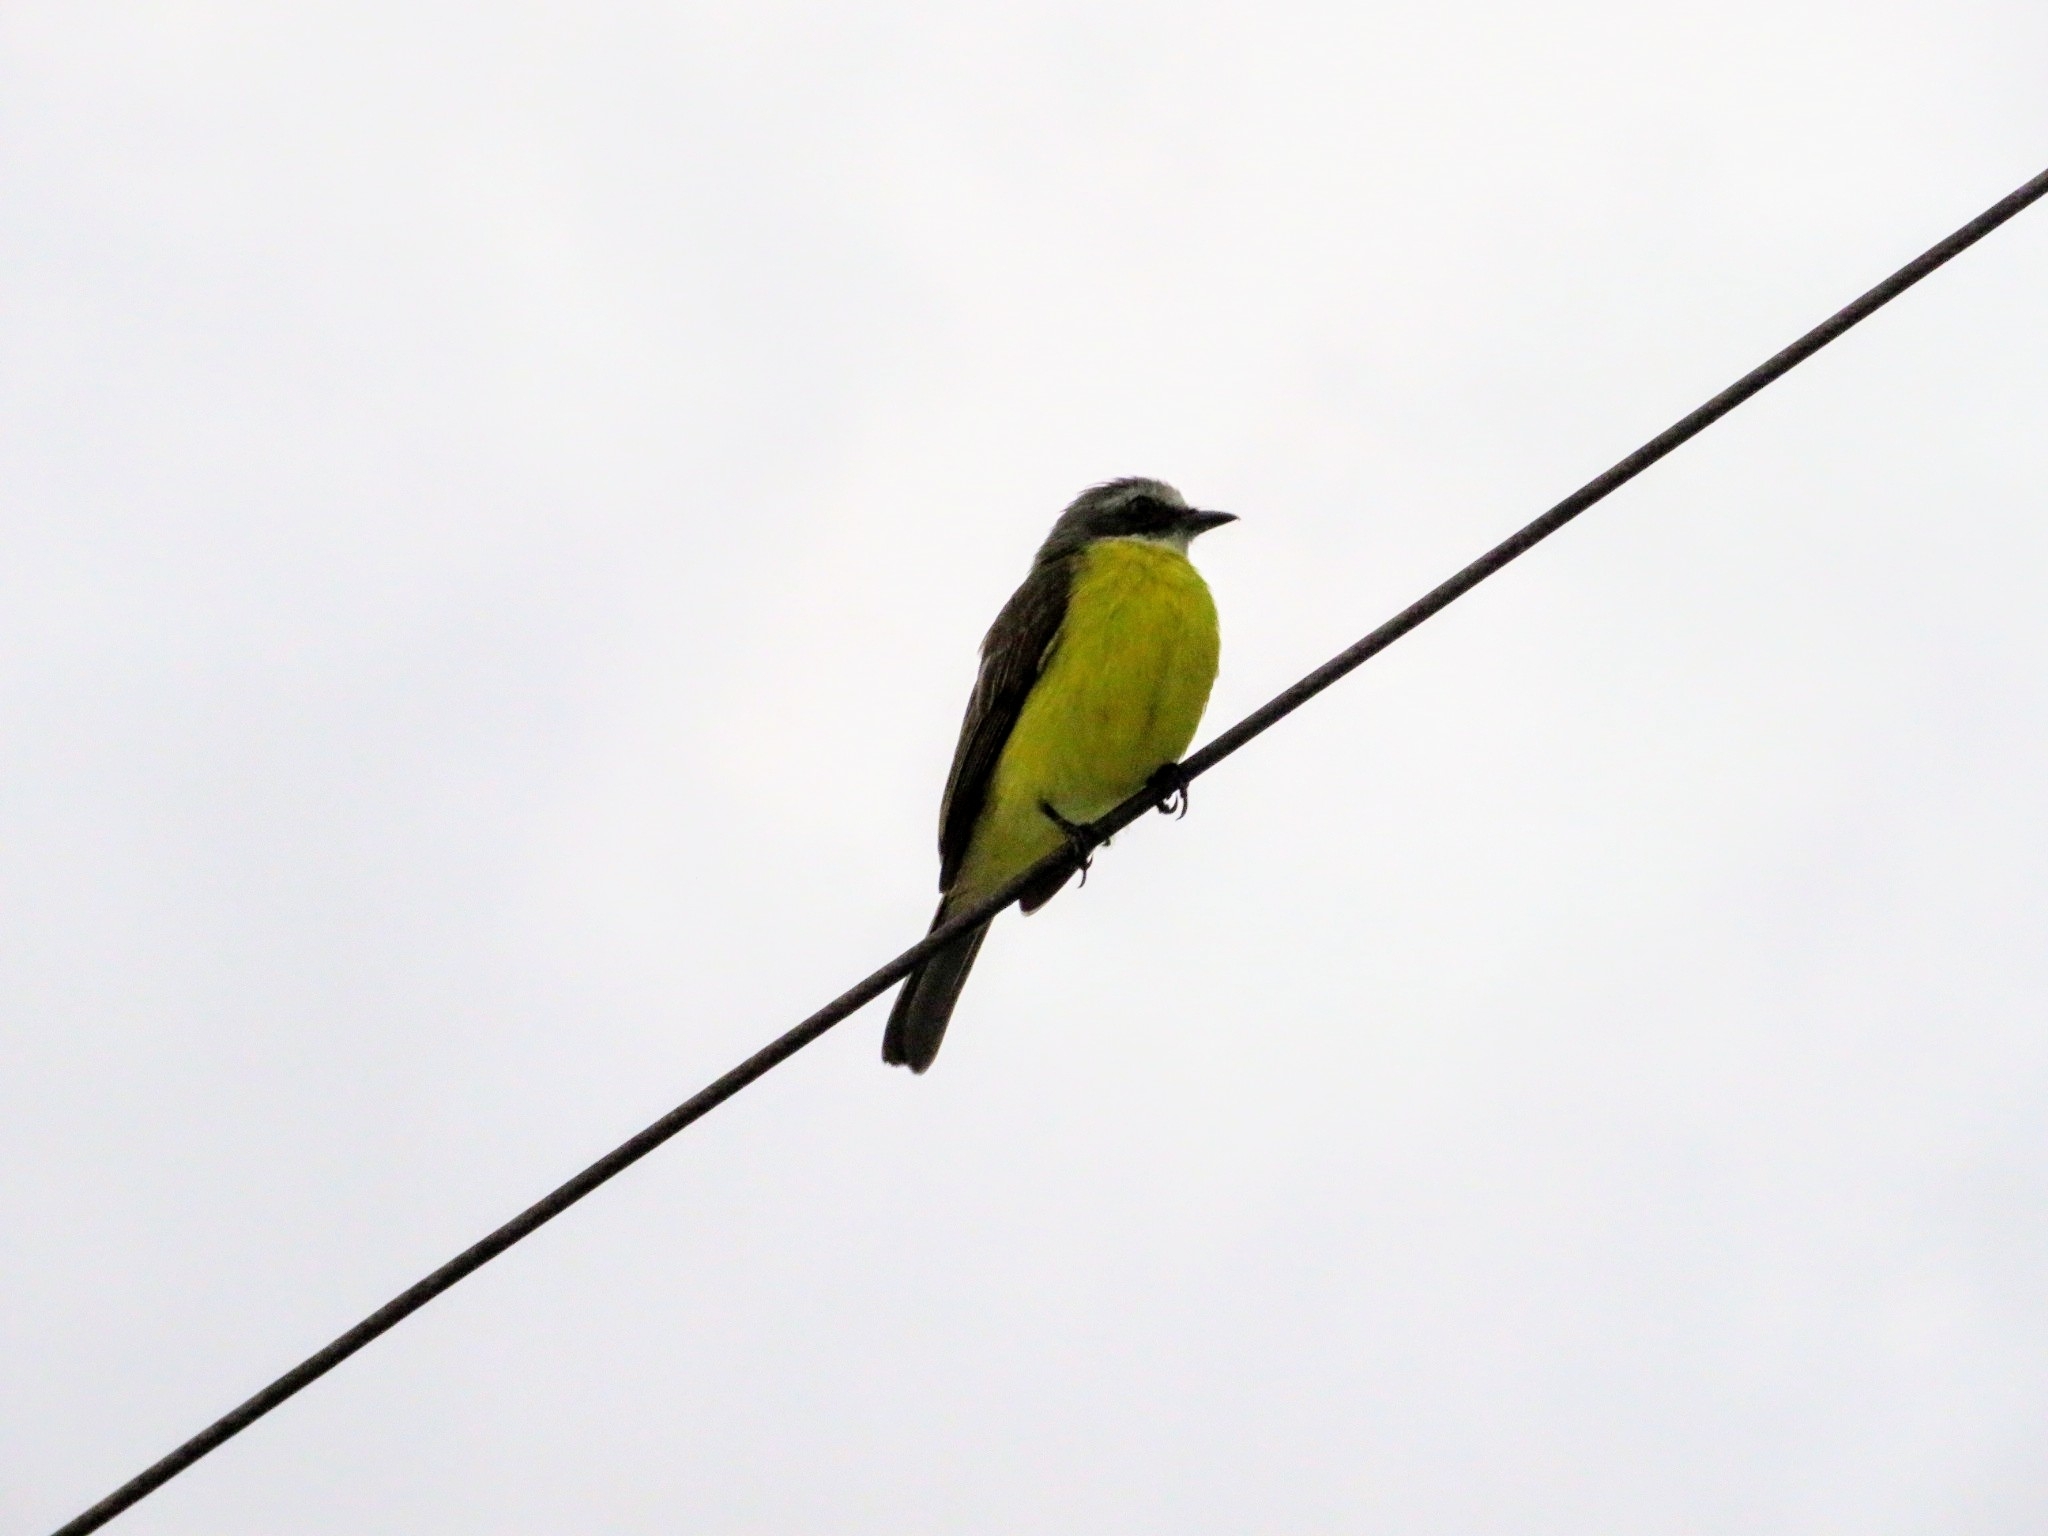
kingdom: Animalia
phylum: Chordata
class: Aves
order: Passeriformes
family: Tyrannidae
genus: Myiozetetes
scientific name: Myiozetetes granadensis
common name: Gray-capped flycatcher
